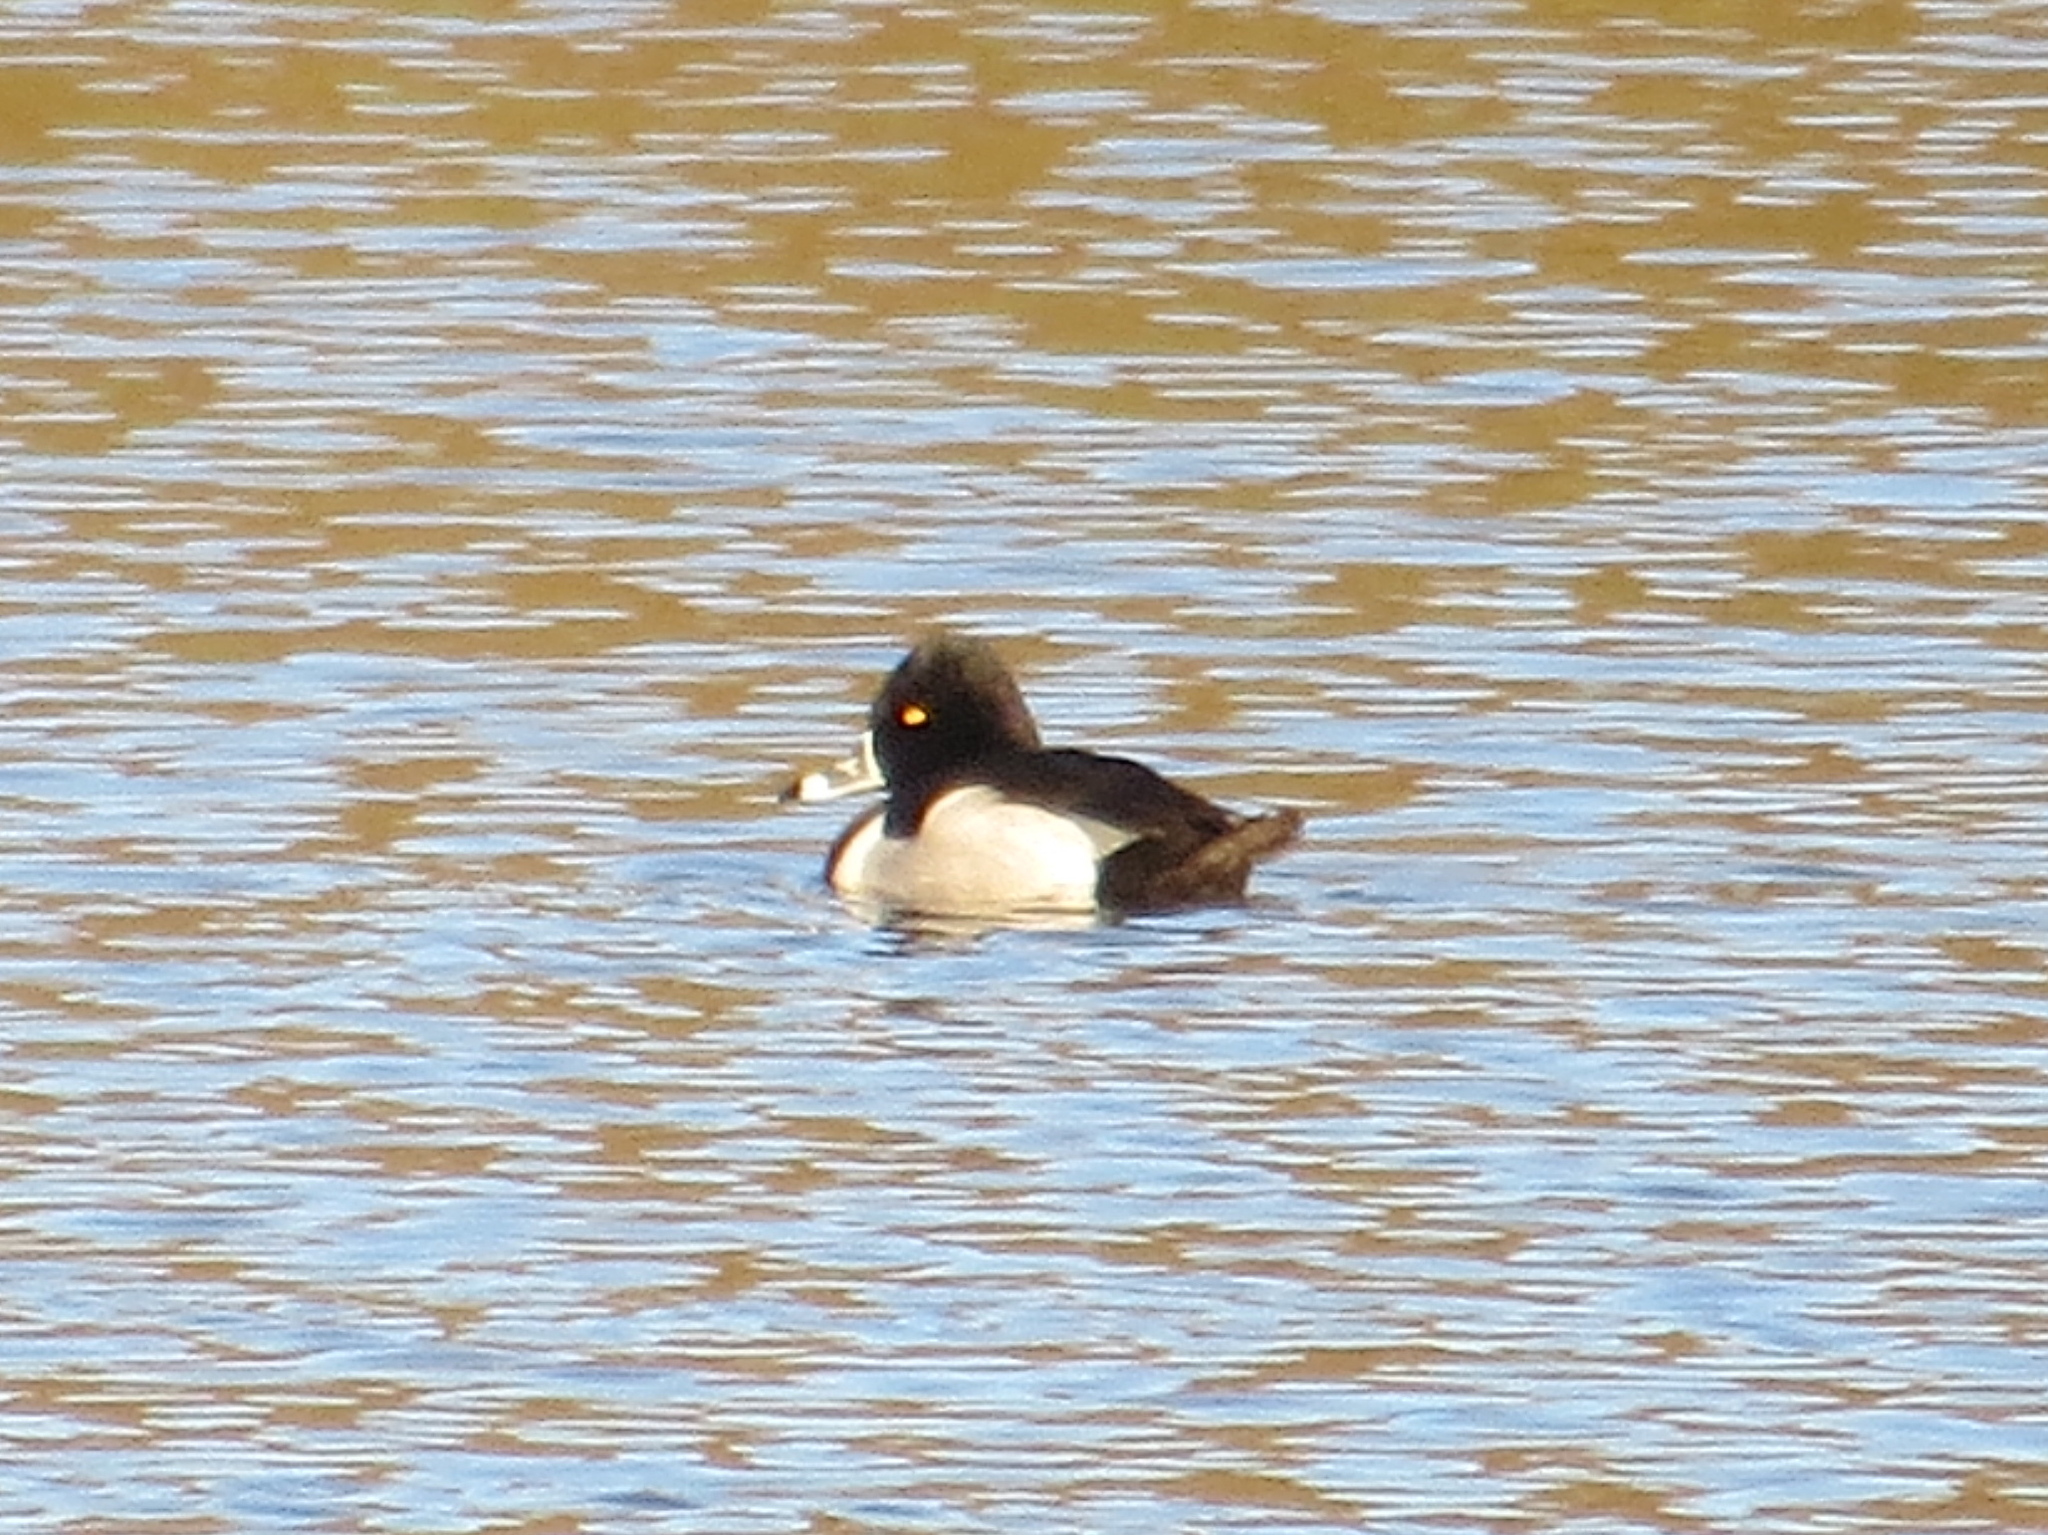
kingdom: Animalia
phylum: Chordata
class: Aves
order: Anseriformes
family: Anatidae
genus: Aythya
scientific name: Aythya collaris
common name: Ring-necked duck
